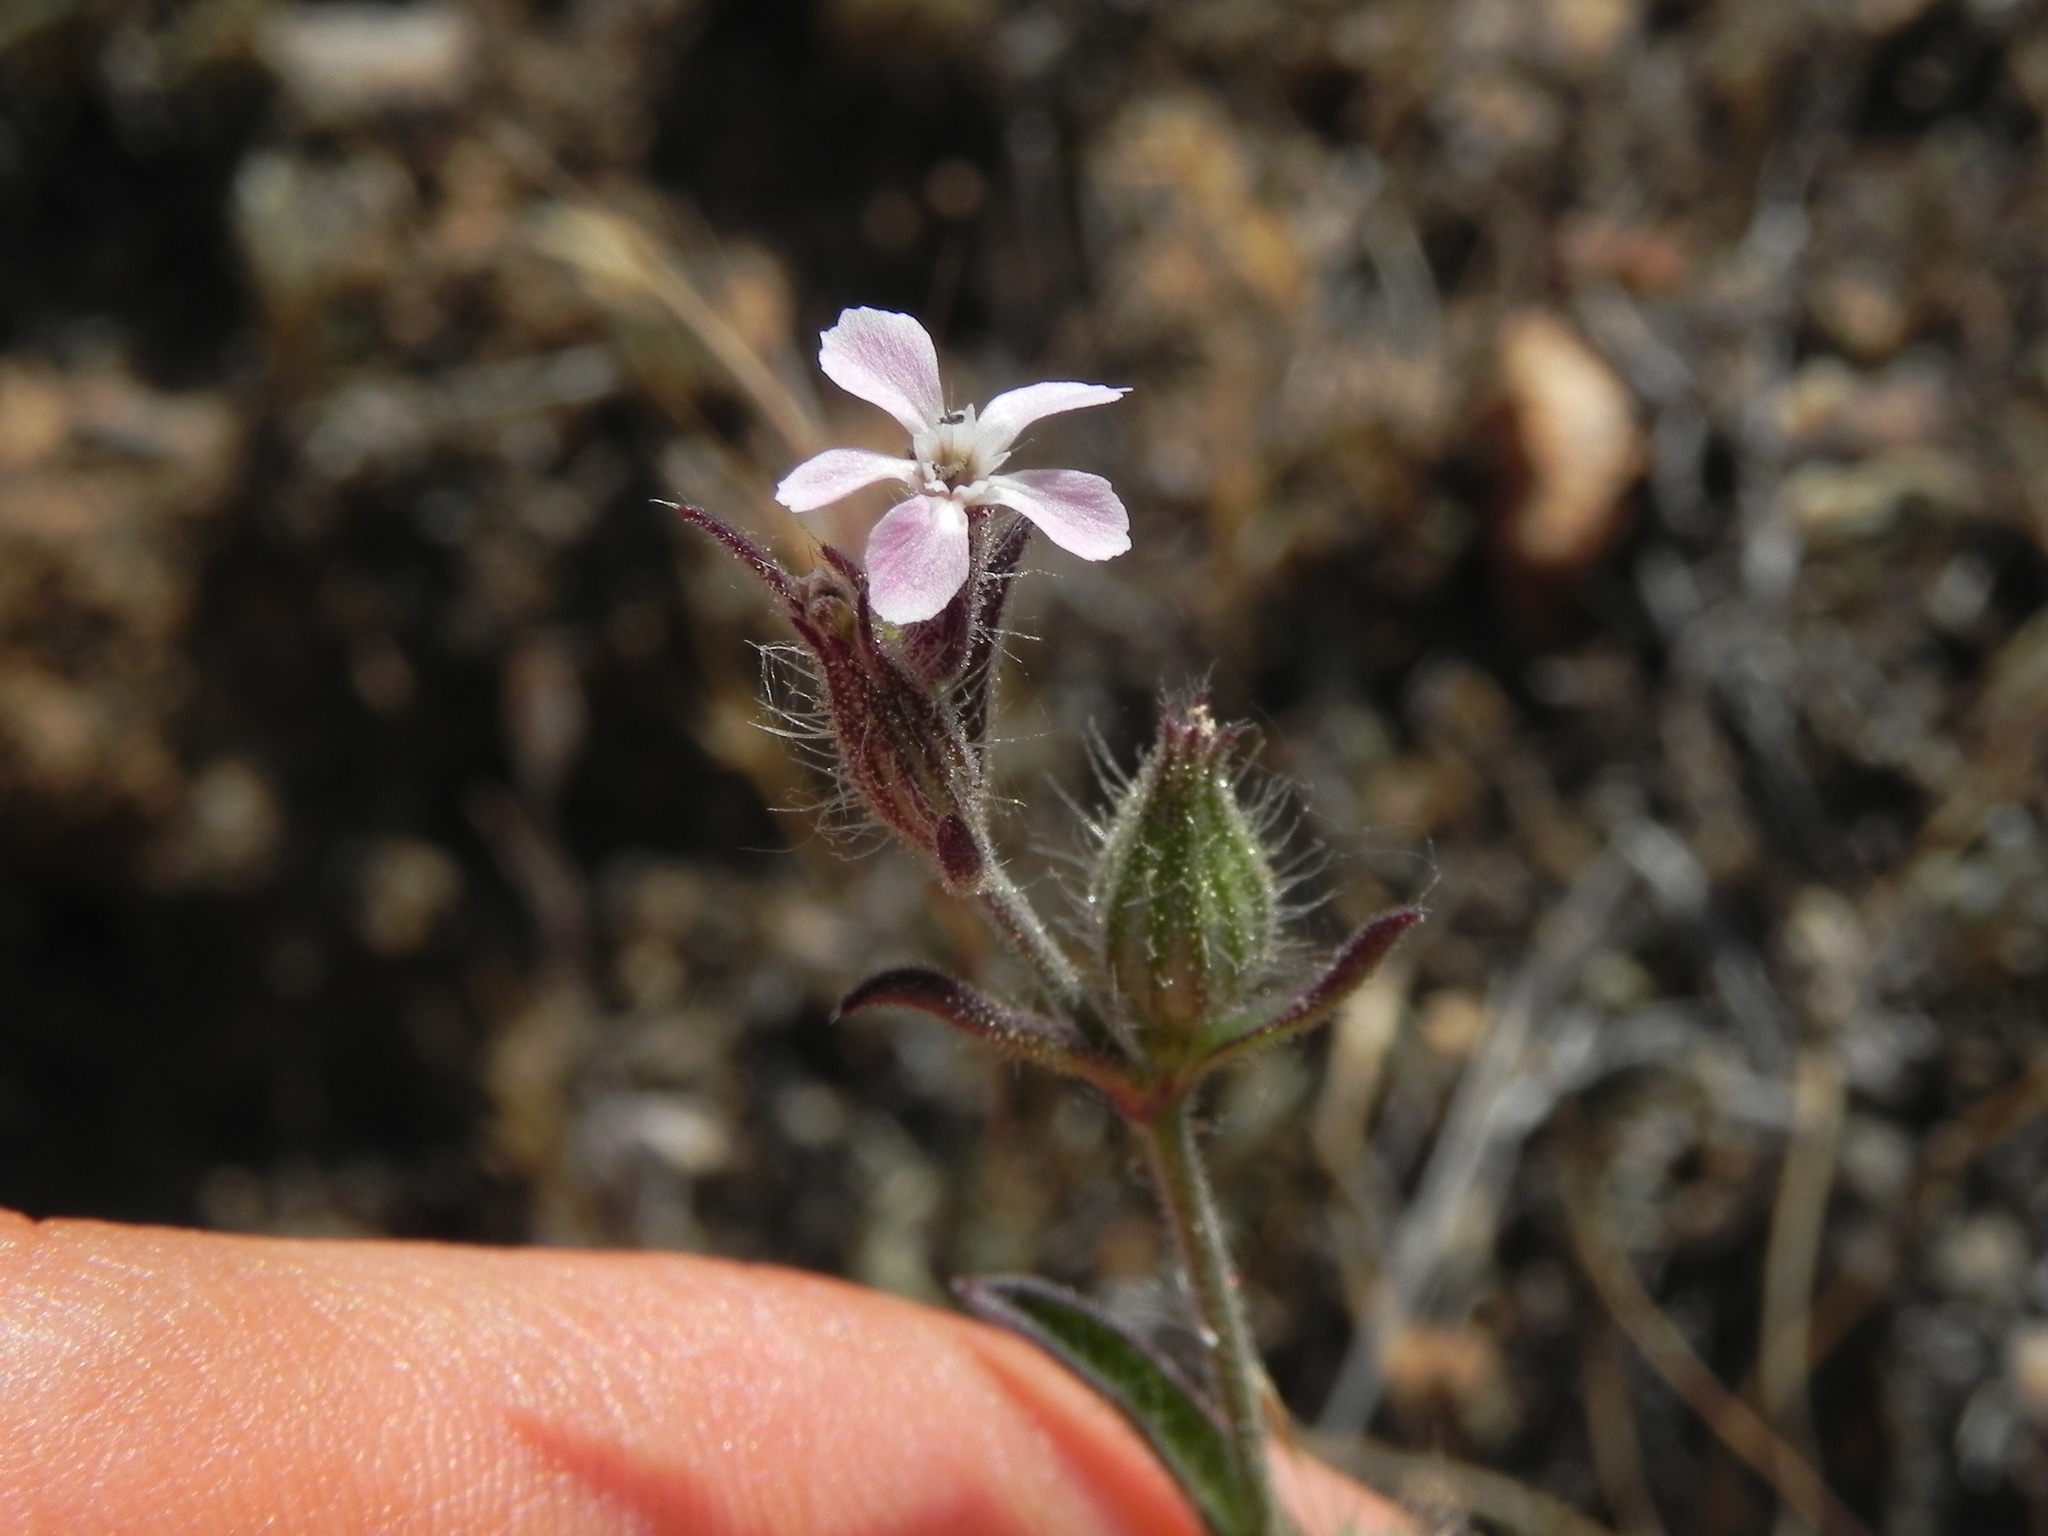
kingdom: Plantae
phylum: Tracheophyta
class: Magnoliopsida
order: Caryophyllales
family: Caryophyllaceae
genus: Silene
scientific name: Silene gallica
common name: Small-flowered catchfly
